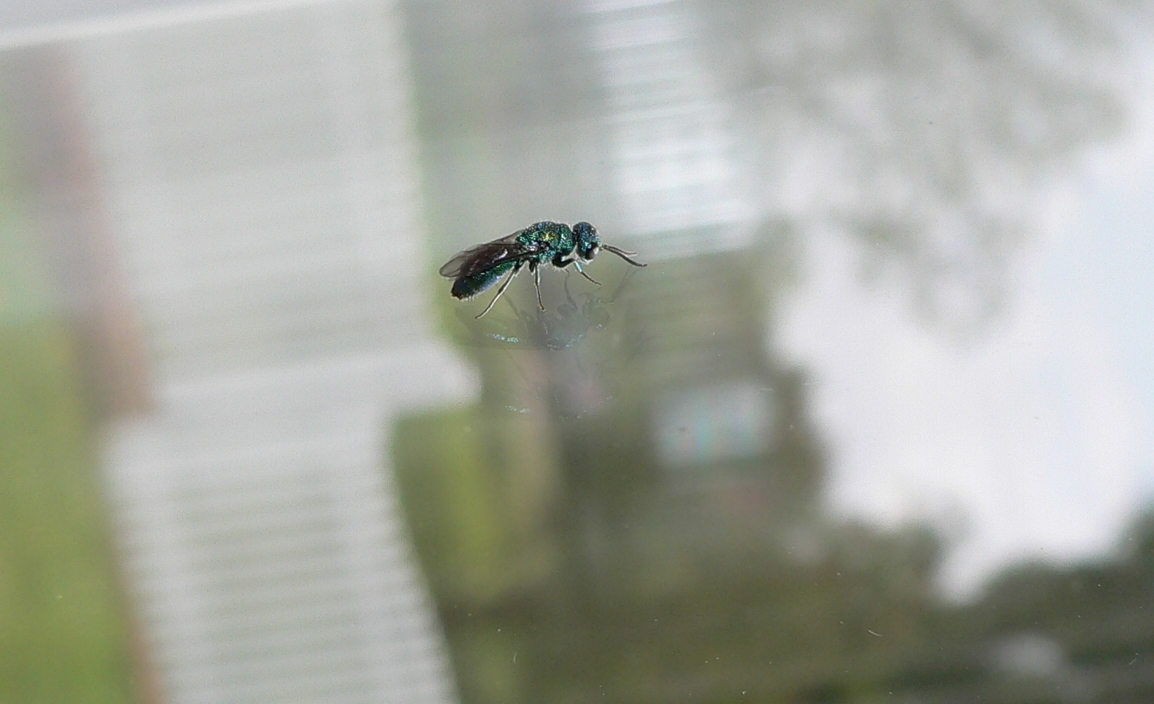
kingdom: Animalia
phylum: Arthropoda
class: Insecta
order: Hymenoptera
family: Pompilidae
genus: Pepsis
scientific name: Pepsis cyanea
